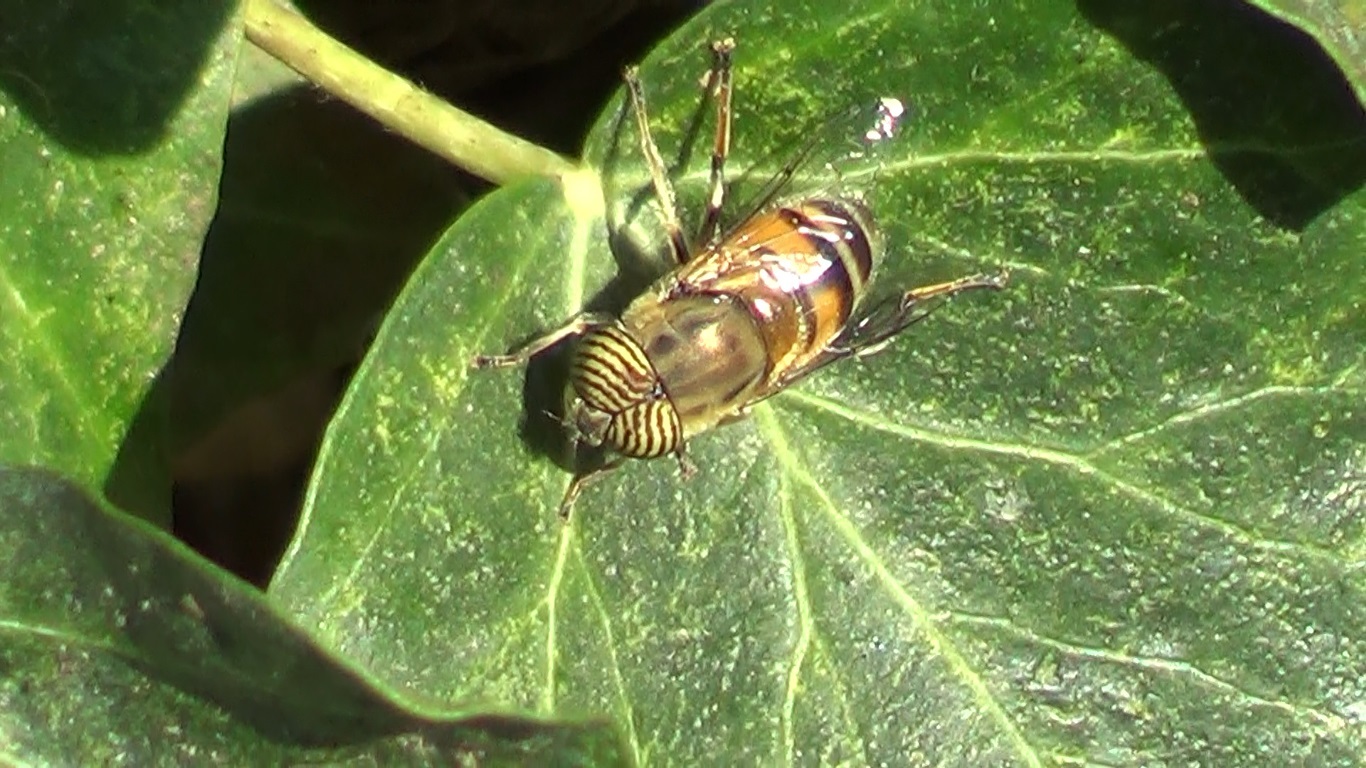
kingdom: Animalia
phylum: Arthropoda
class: Insecta
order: Diptera
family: Syrphidae
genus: Eristalinus
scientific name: Eristalinus taeniops
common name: Syrphid fly
